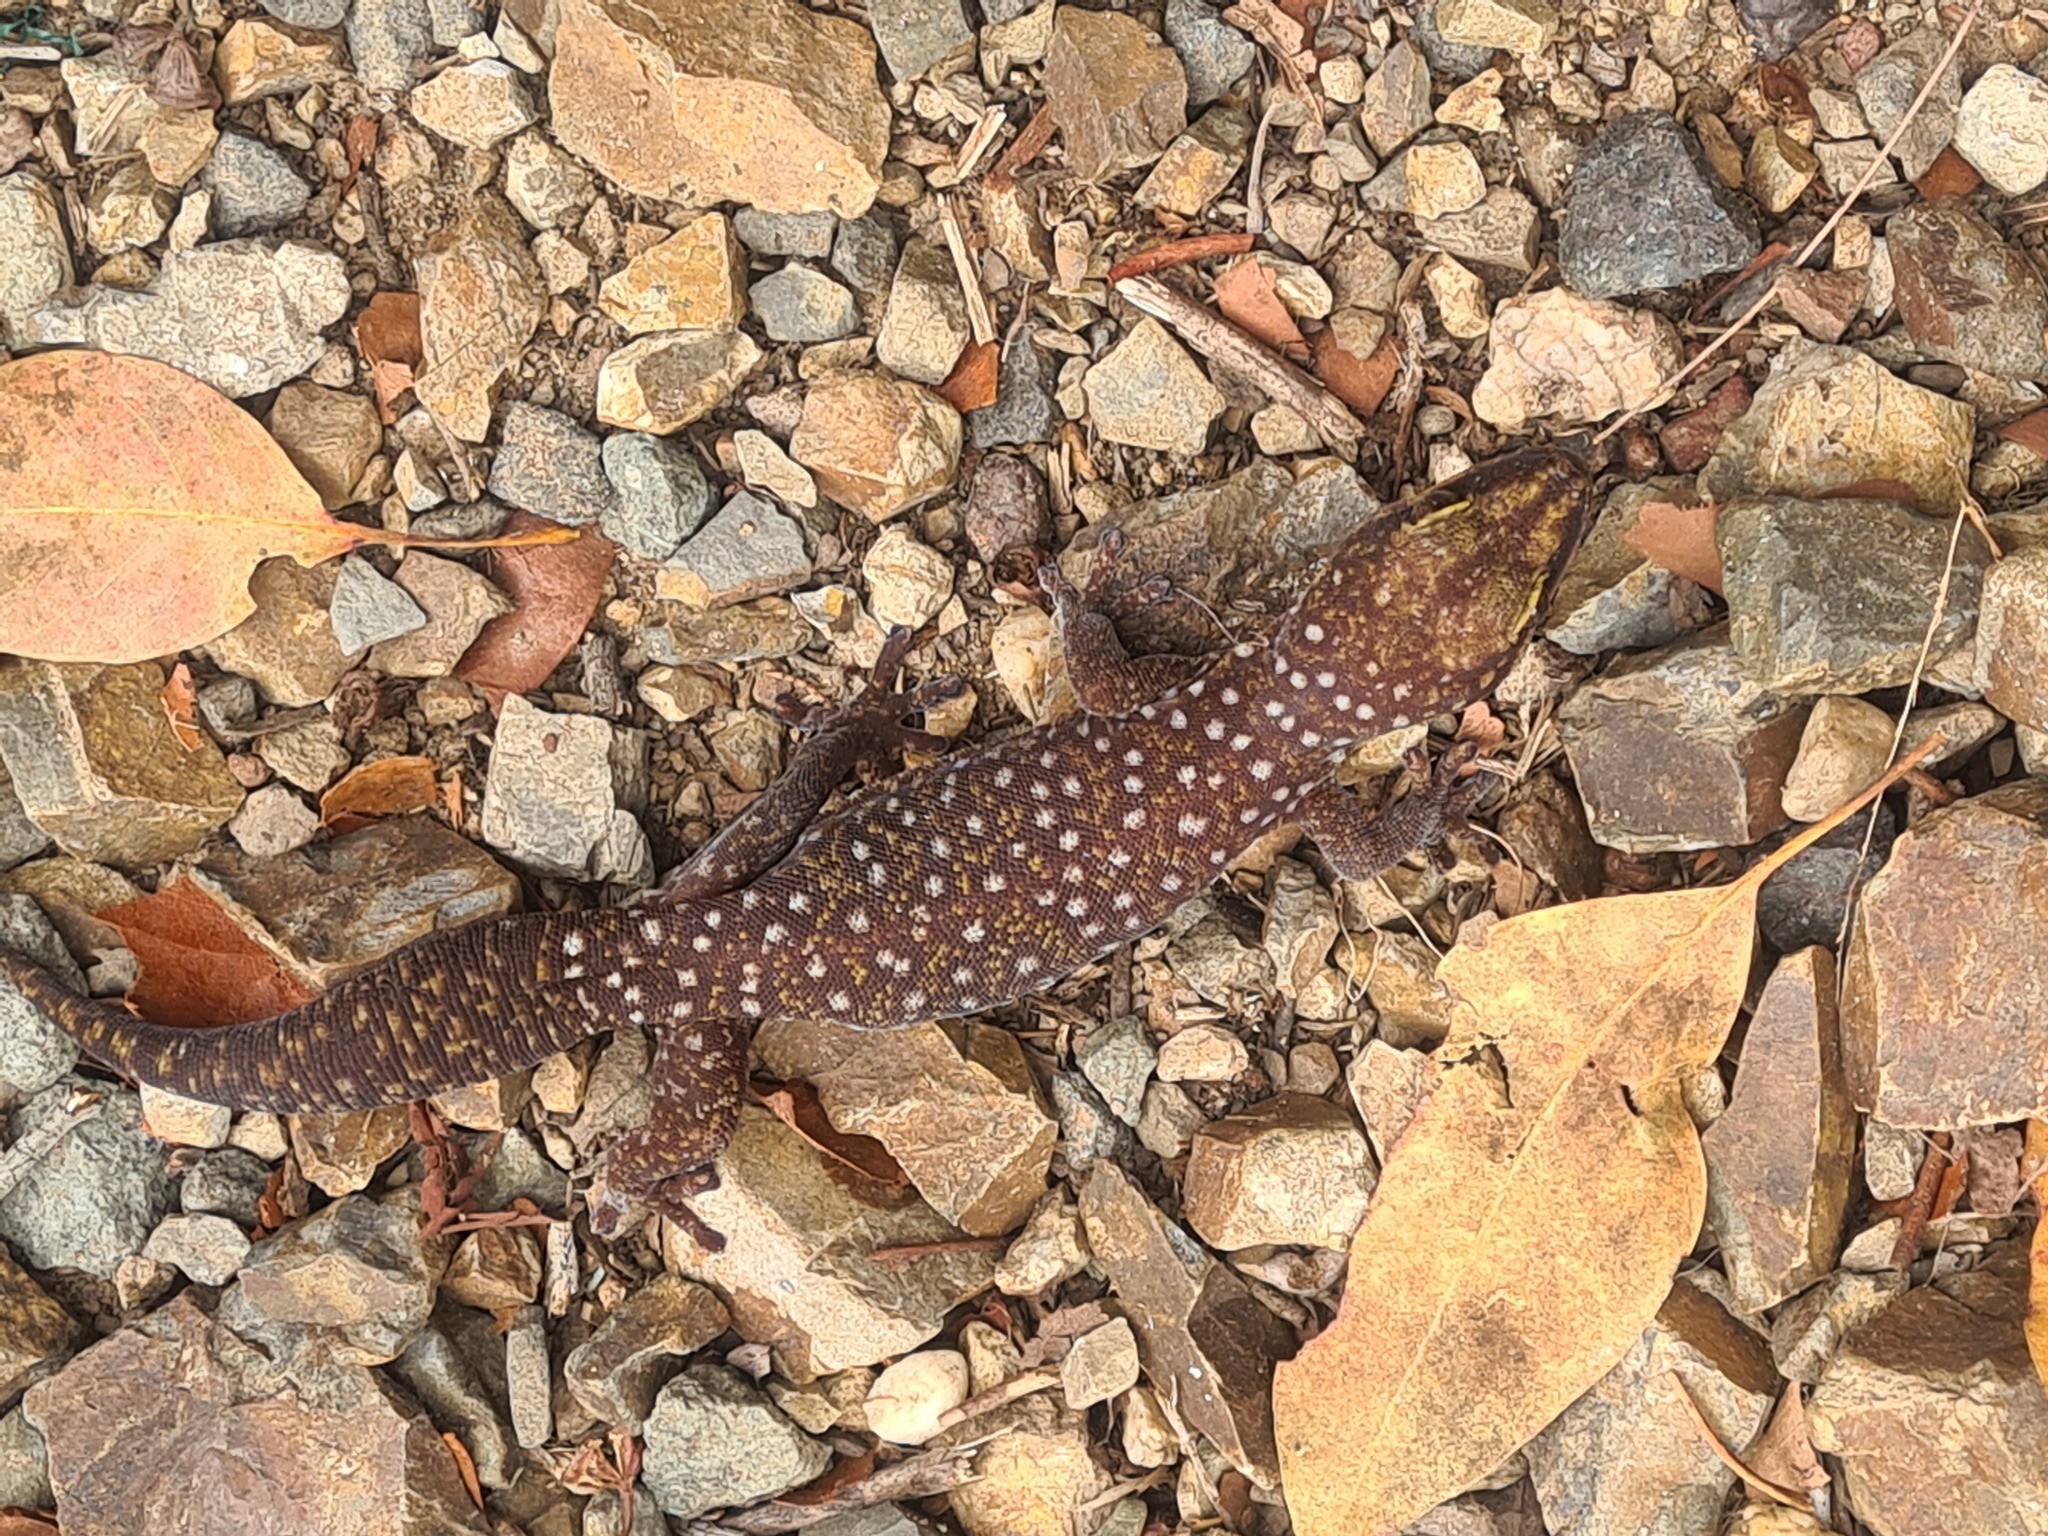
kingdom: Animalia
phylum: Chordata
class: Squamata
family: Diplodactylidae
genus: Oedura
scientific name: Oedura tryoni
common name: Southern spotted velvet gecko
